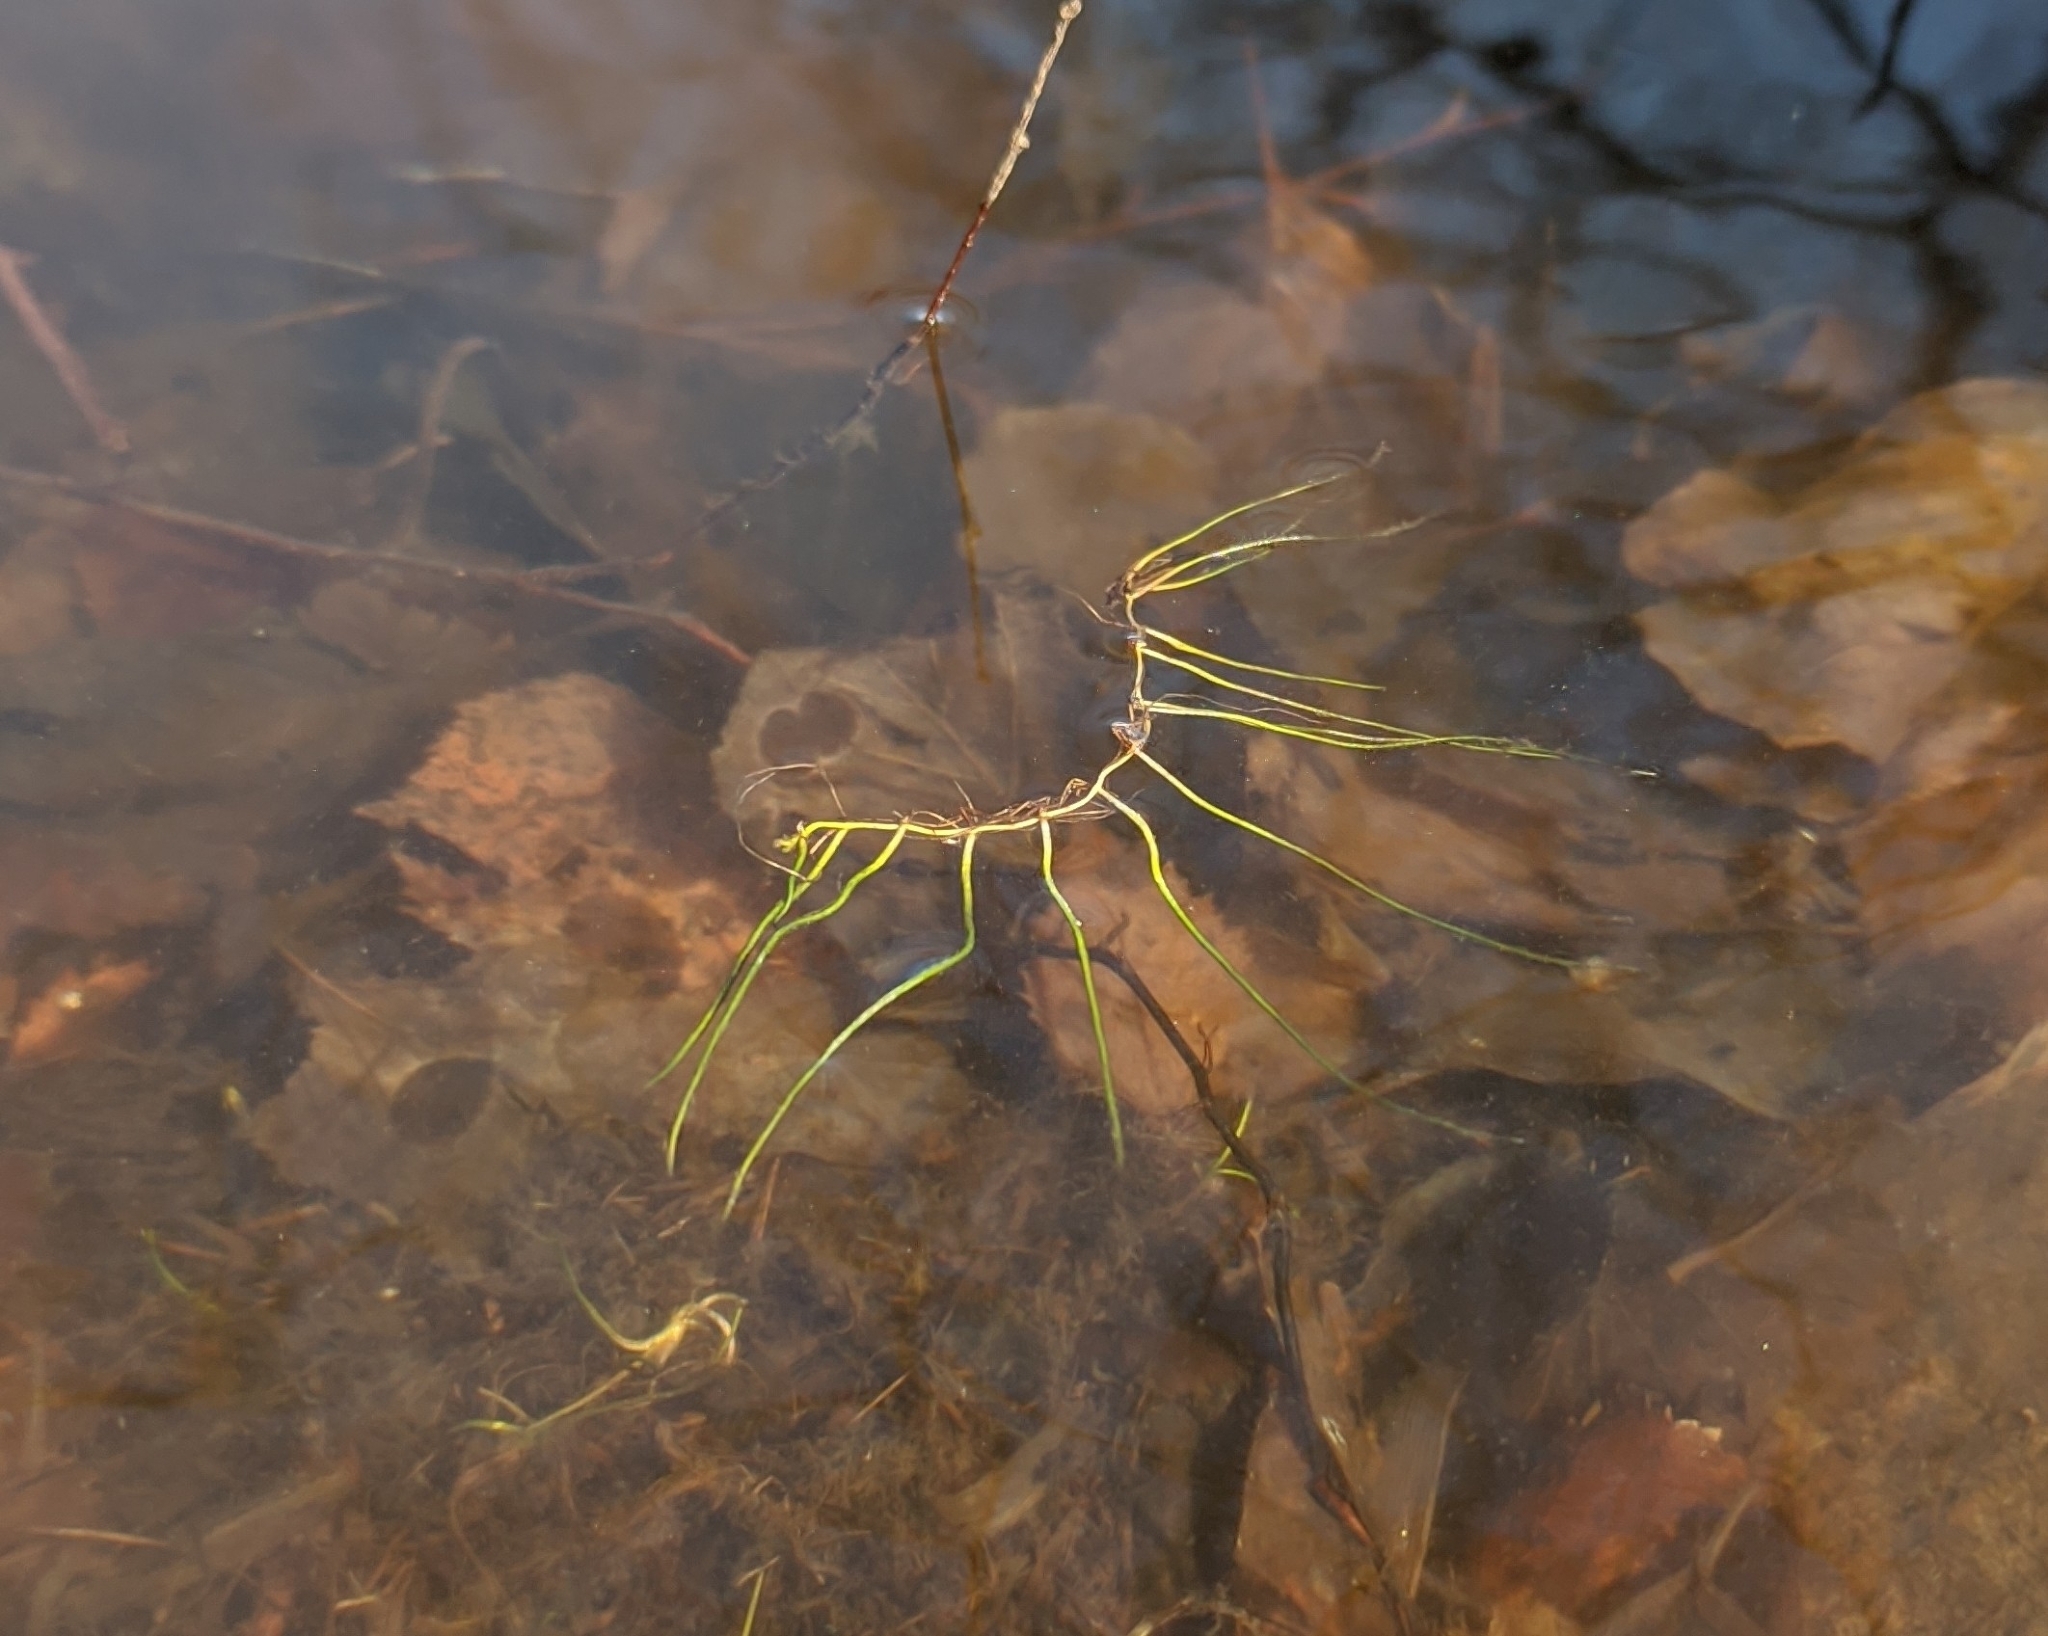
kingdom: Plantae
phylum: Tracheophyta
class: Polypodiopsida
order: Salviniales
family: Marsileaceae
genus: Pilularia
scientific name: Pilularia globulifera
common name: Pillwort
